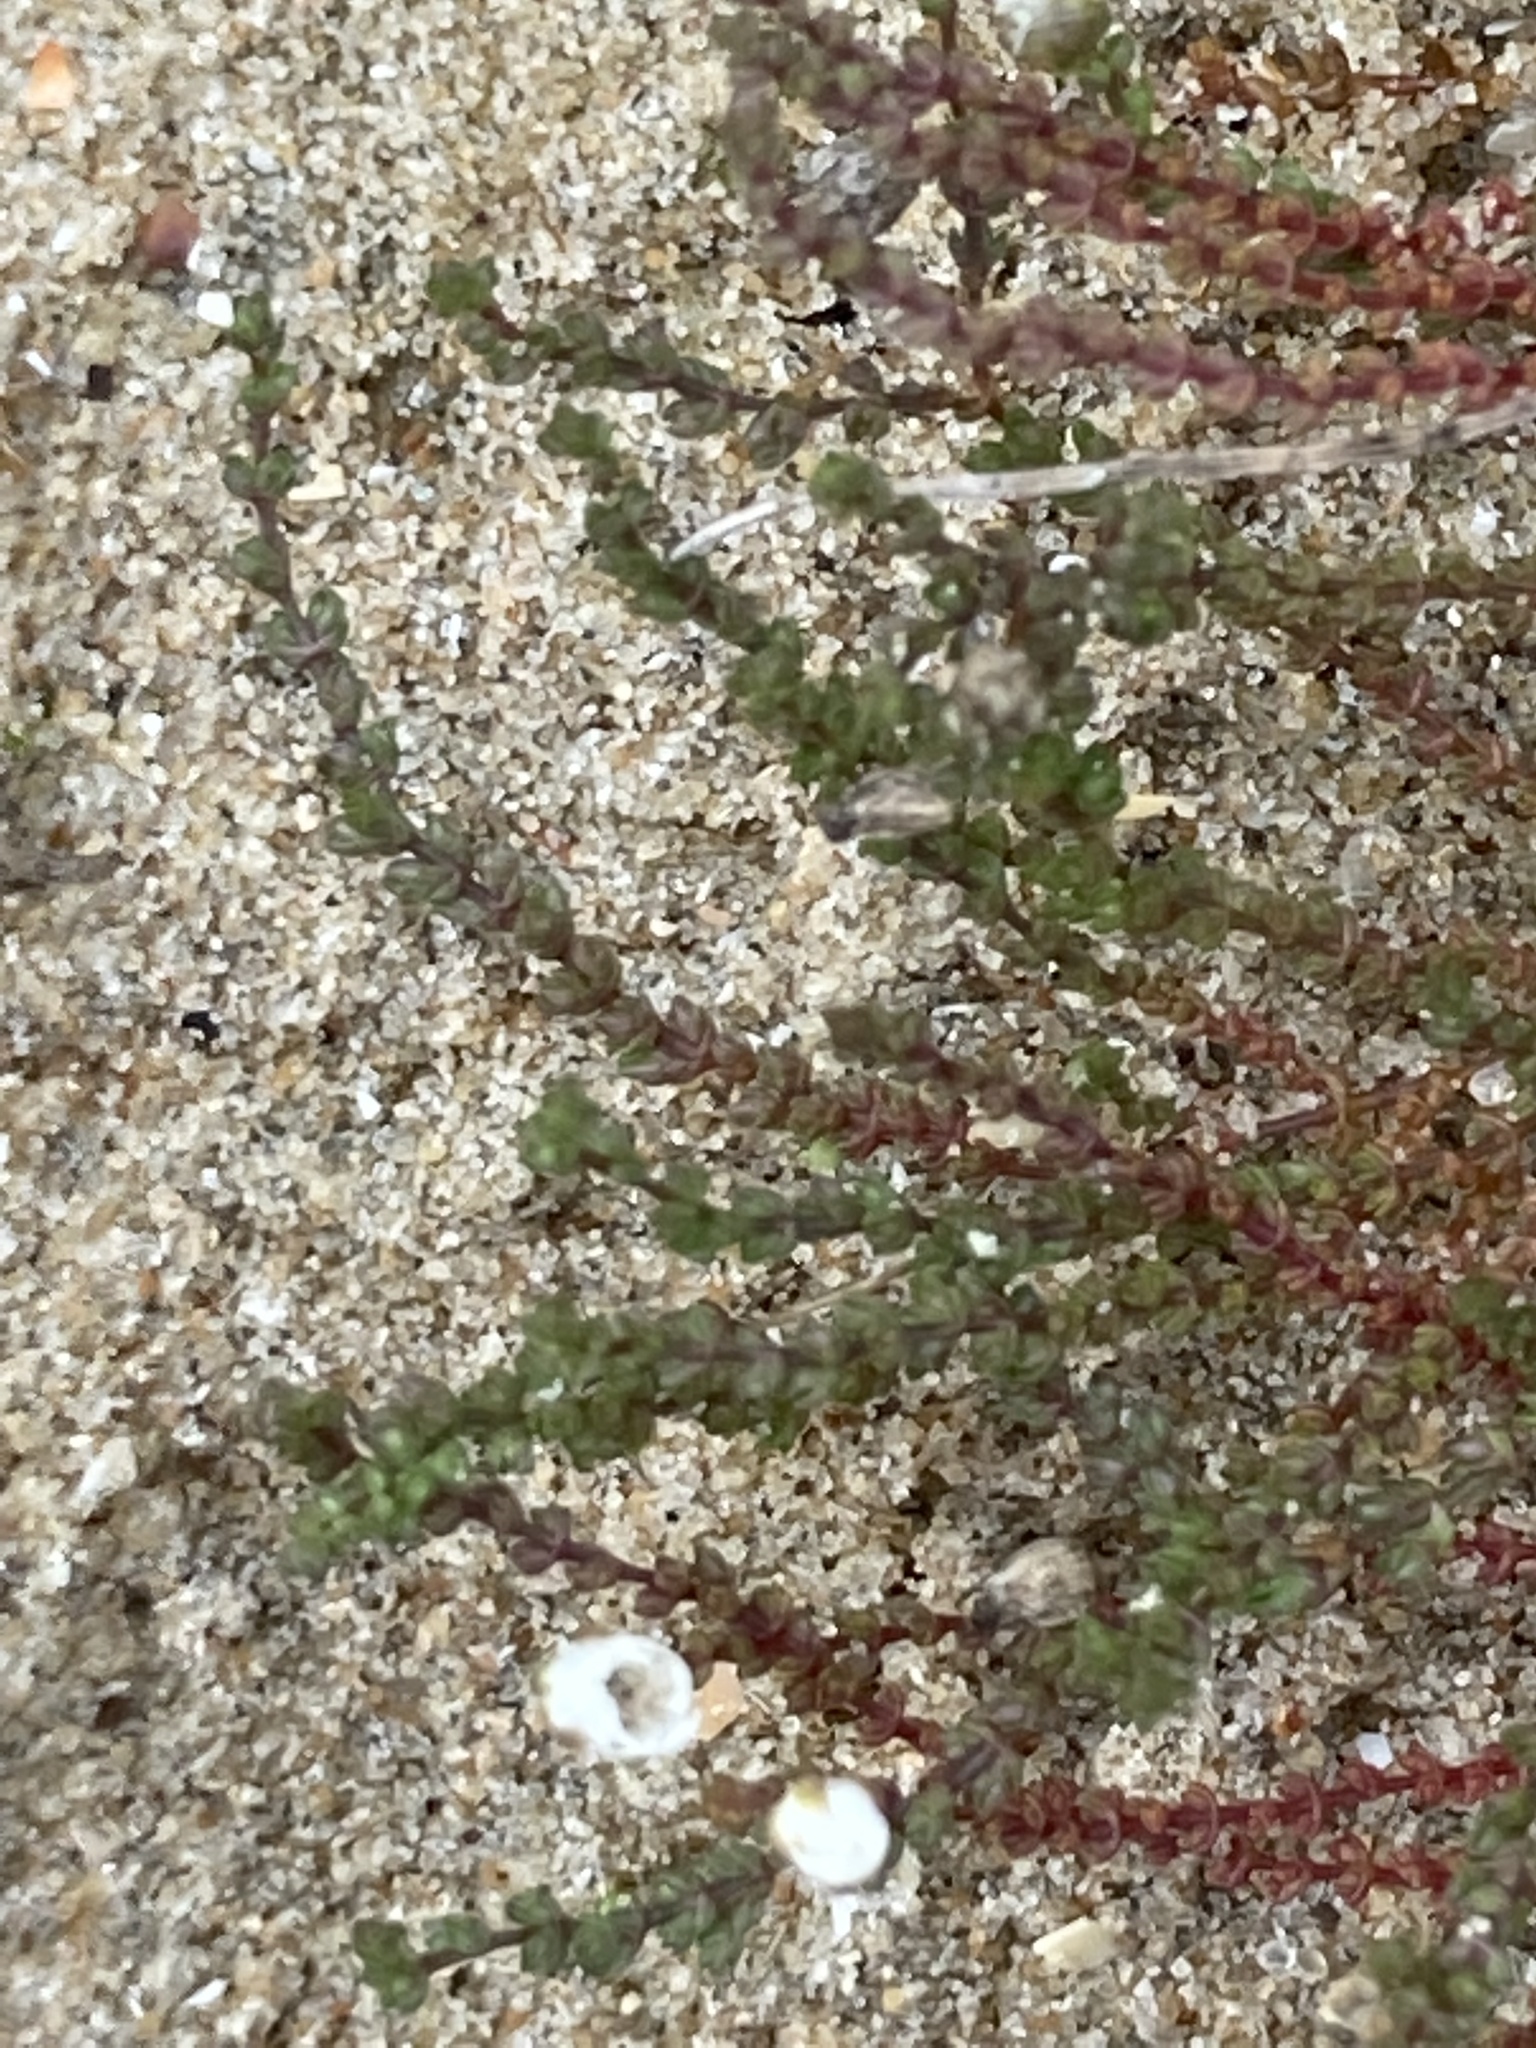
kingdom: Plantae
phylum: Tracheophyta
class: Magnoliopsida
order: Caryophyllales
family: Caryophyllaceae
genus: Illecebrum
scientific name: Illecebrum verticillatum
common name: Coral necklace
